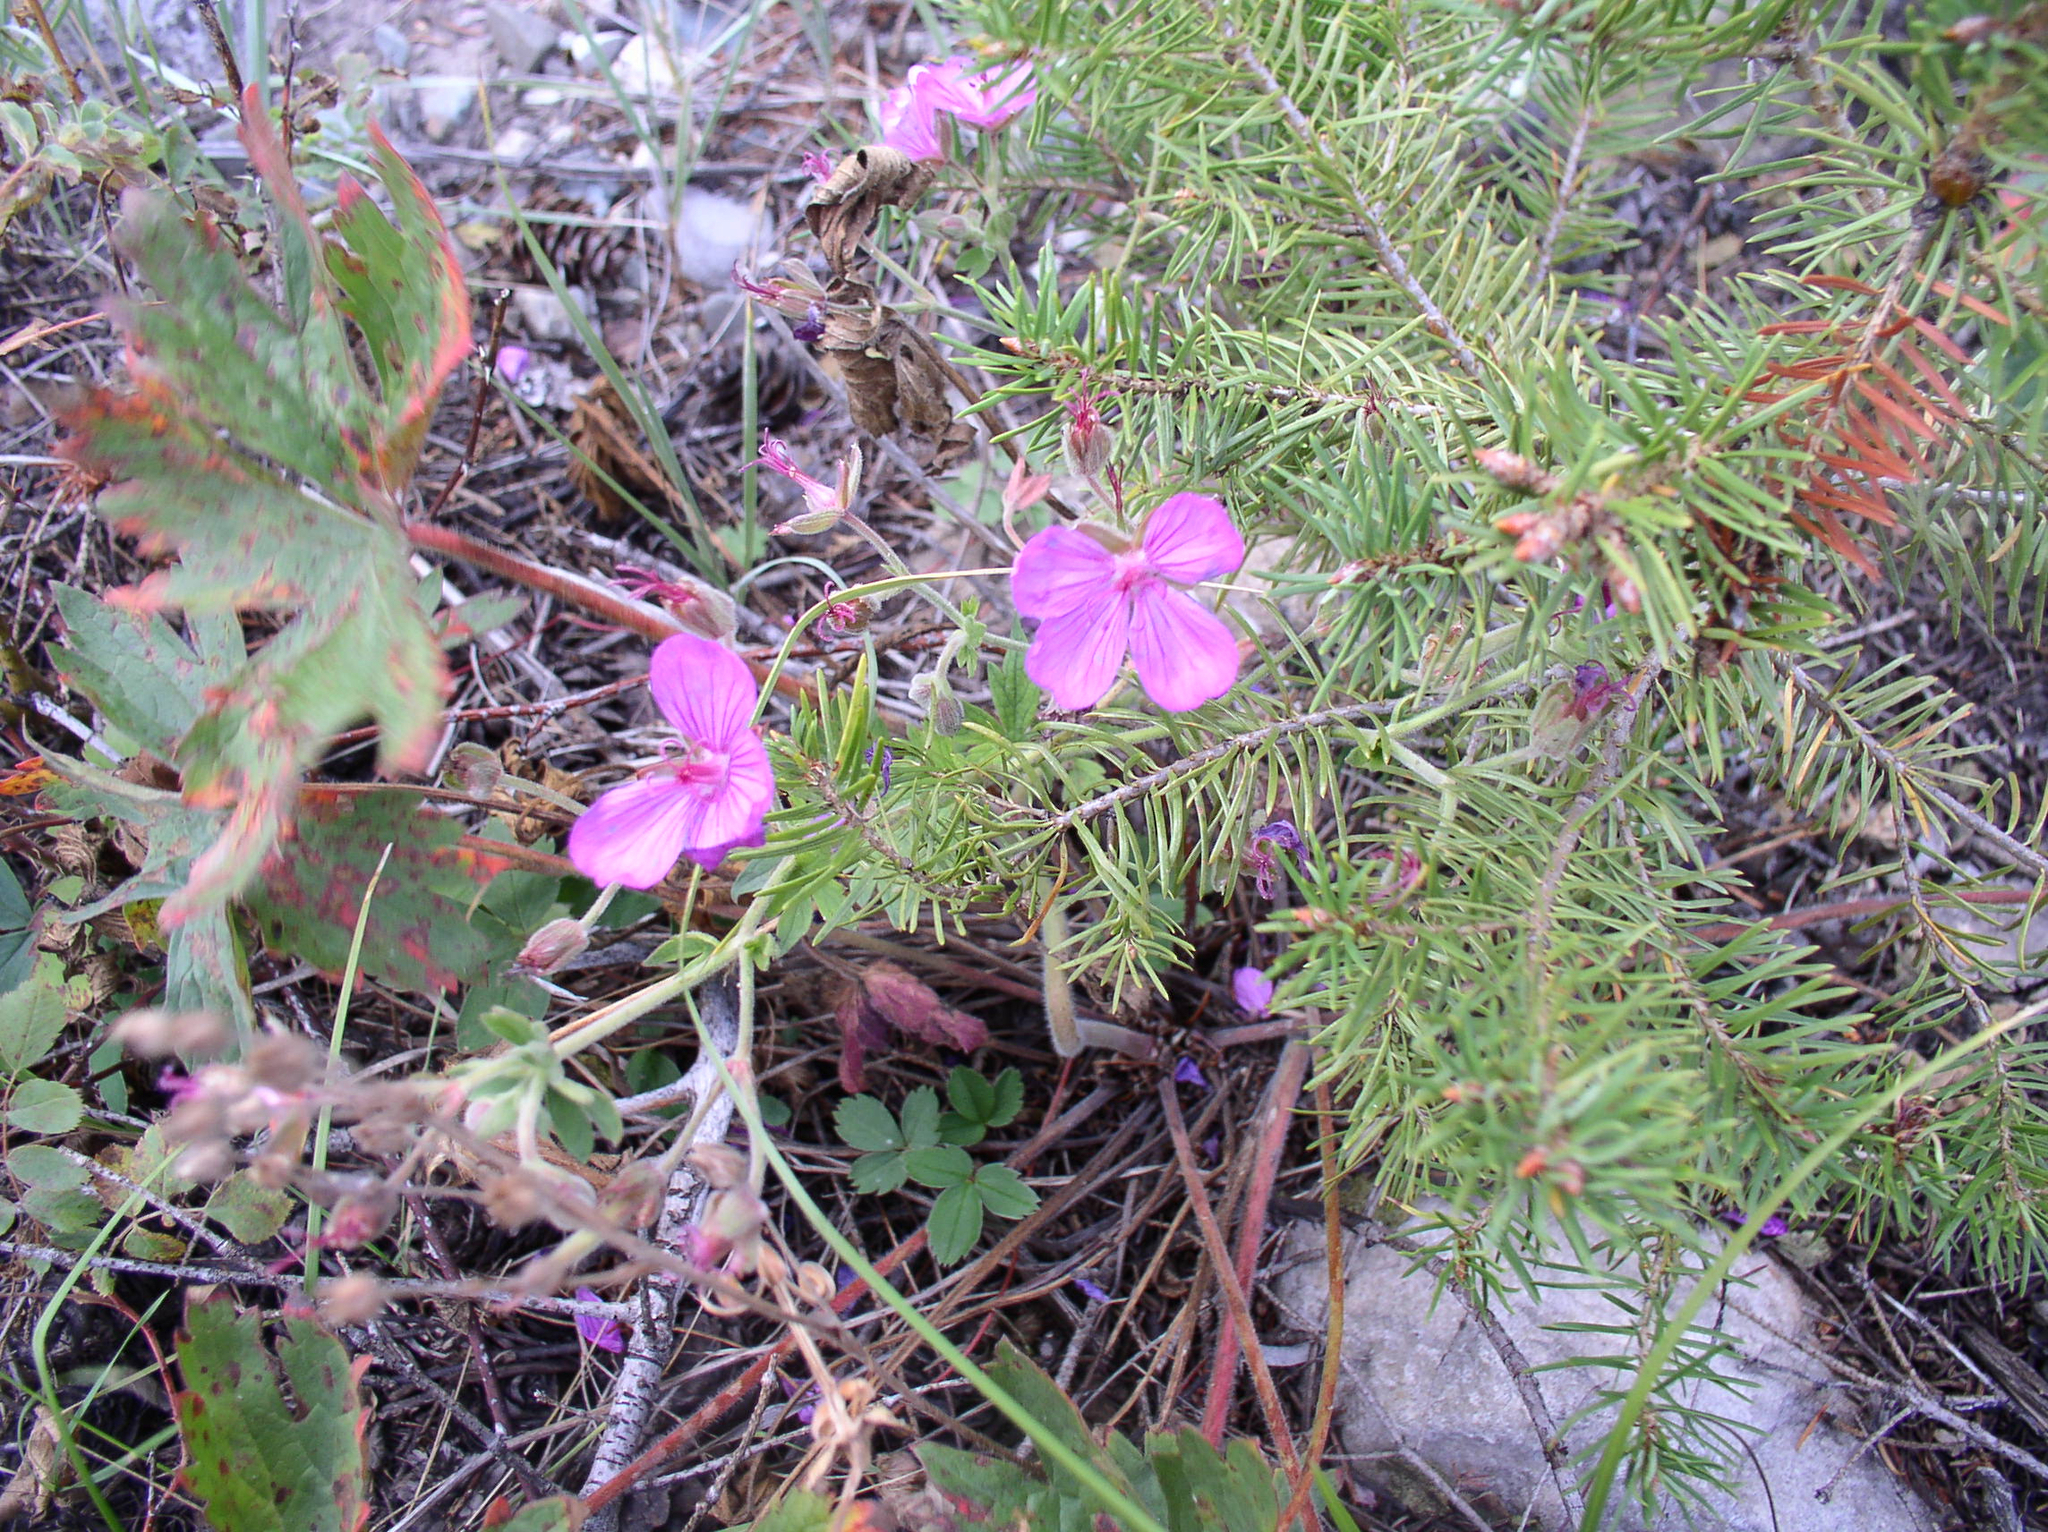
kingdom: Plantae
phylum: Tracheophyta
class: Magnoliopsida
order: Geraniales
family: Geraniaceae
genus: Geranium
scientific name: Geranium viscosissimum
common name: Purple geranium
